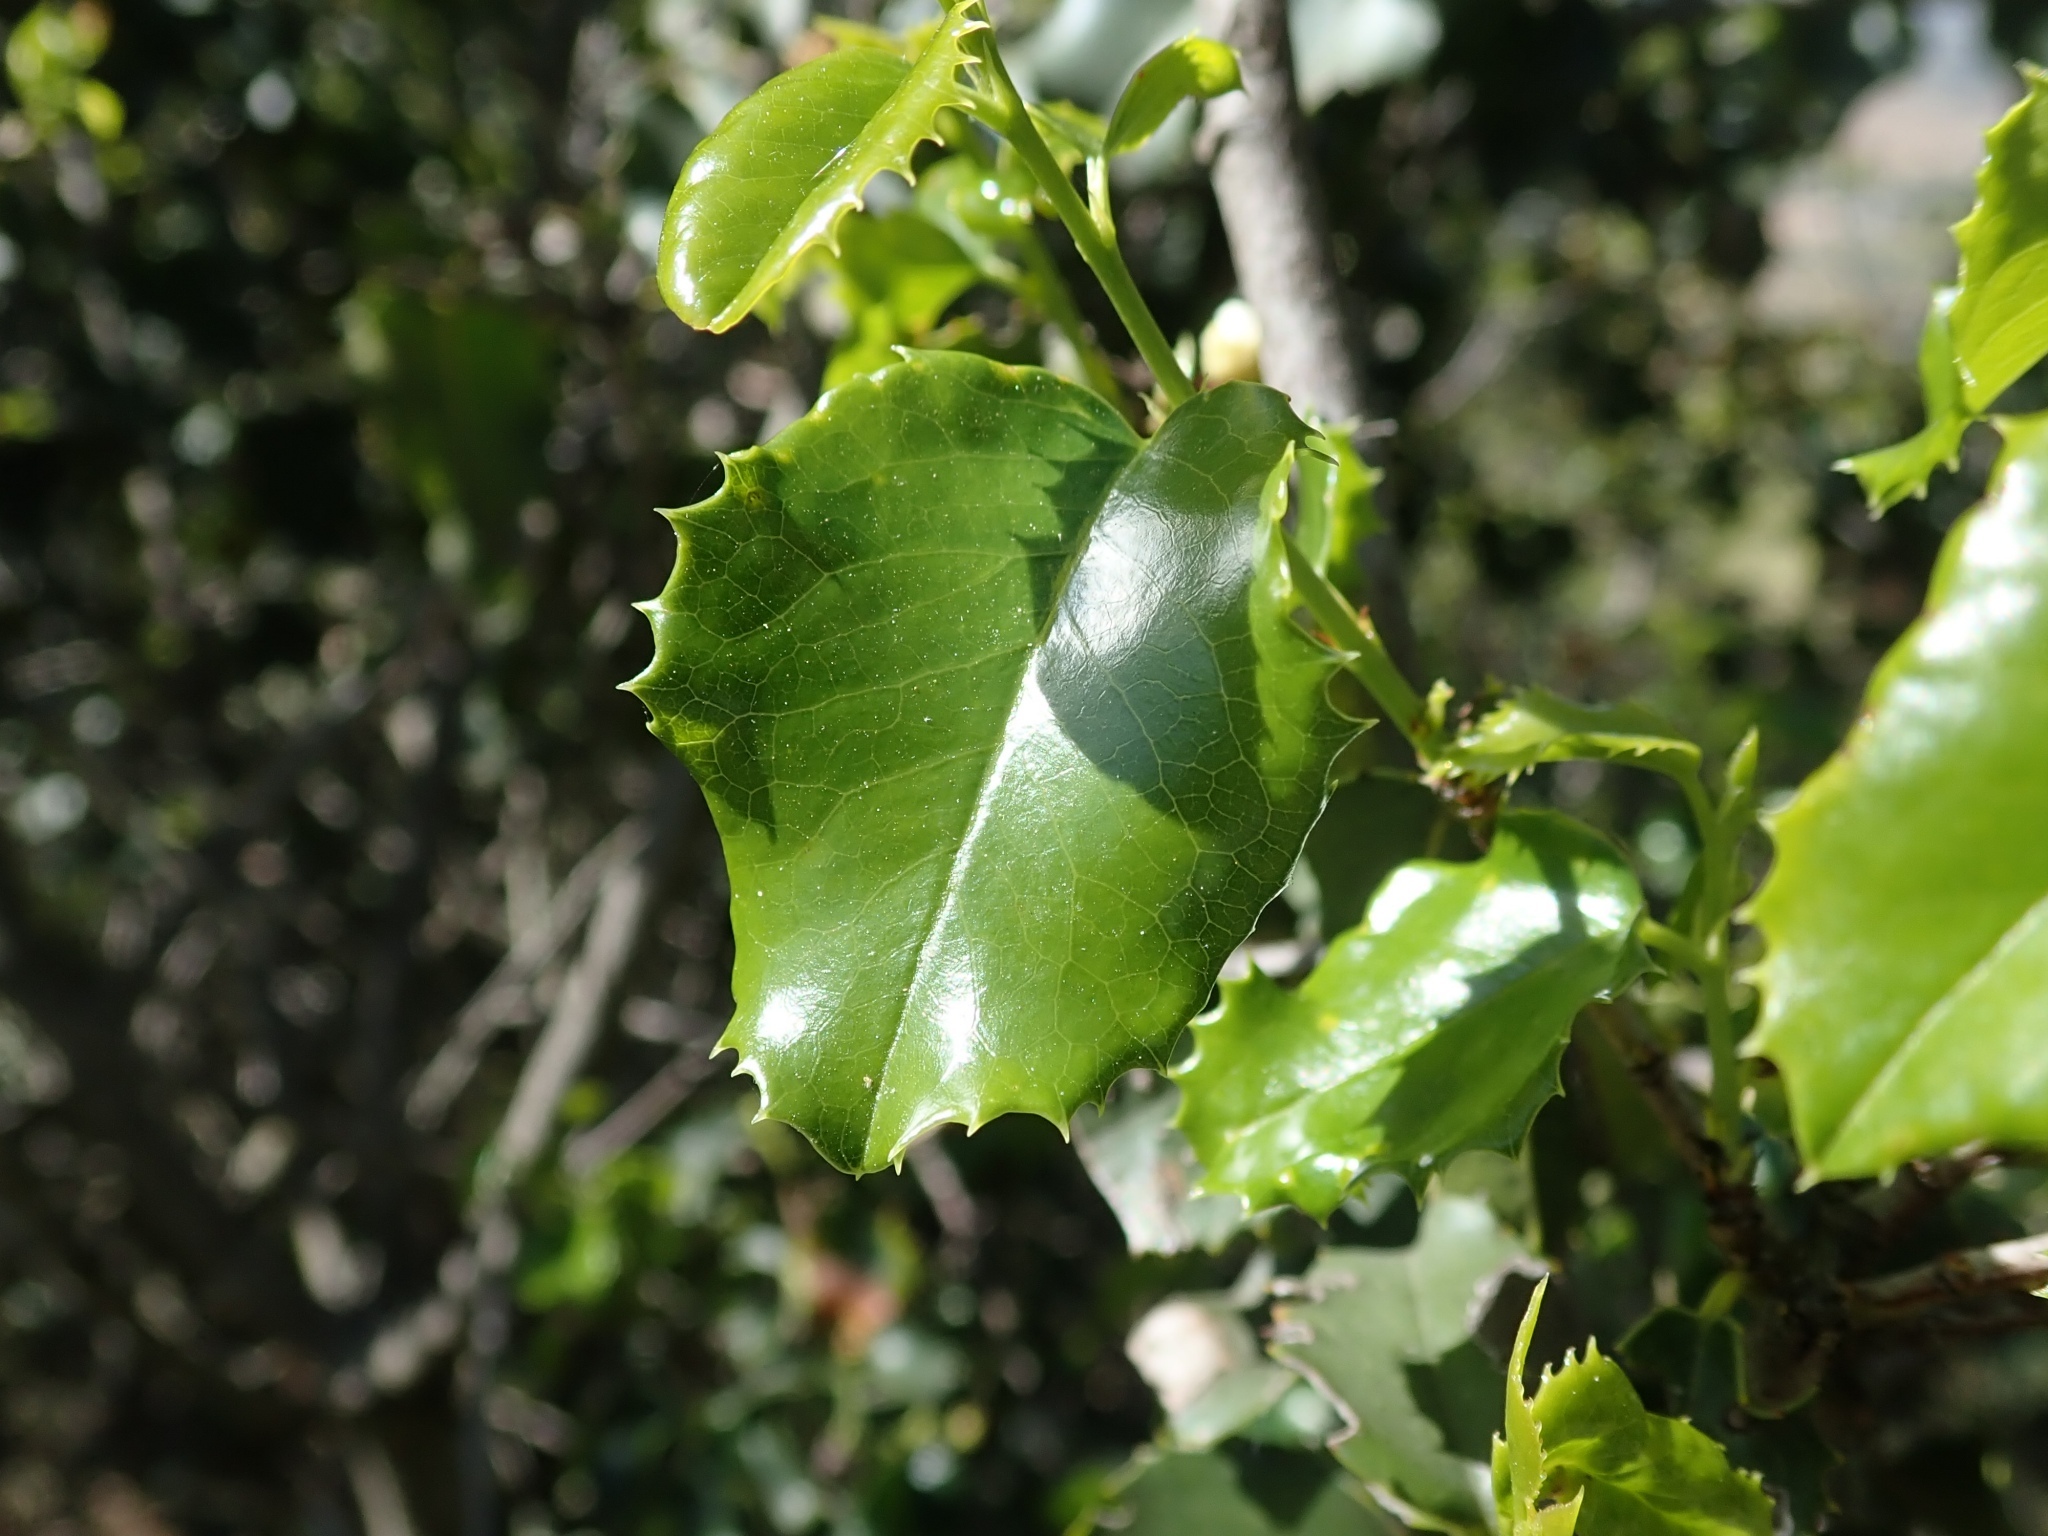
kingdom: Plantae
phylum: Tracheophyta
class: Magnoliopsida
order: Rosales
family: Rosaceae
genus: Prunus
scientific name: Prunus ilicifolia
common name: Hollyleaf cherry
